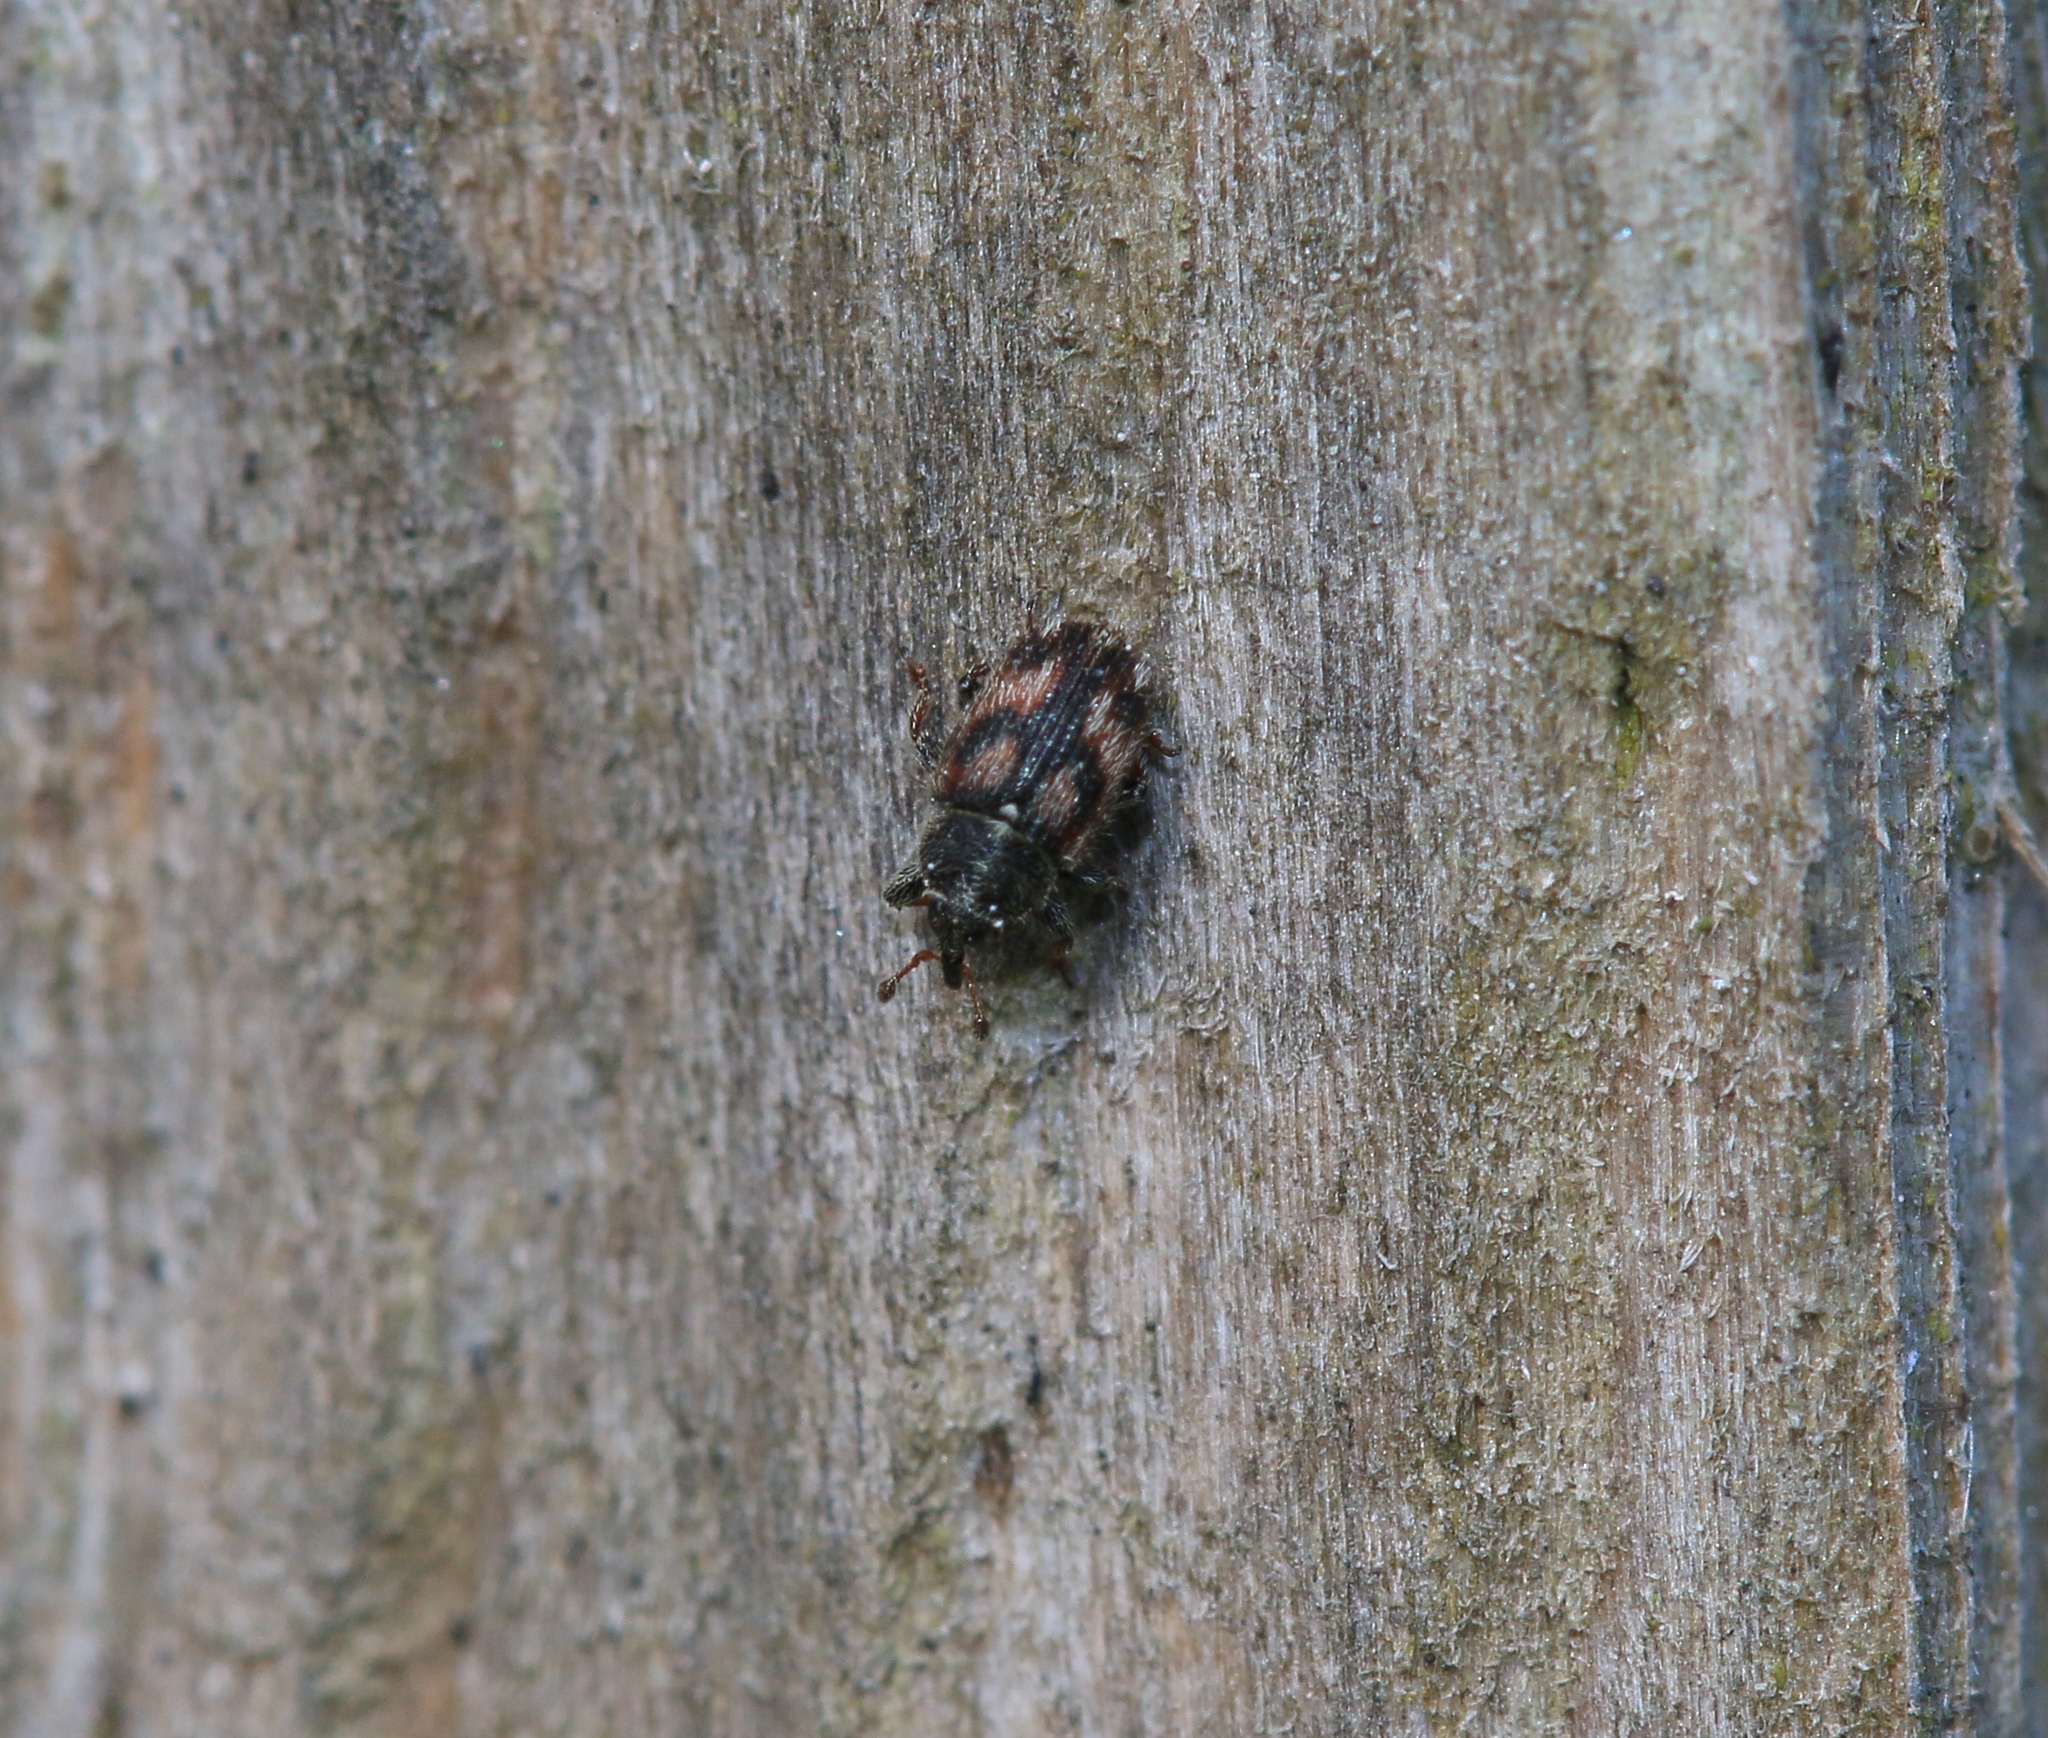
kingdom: Animalia
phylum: Arthropoda
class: Insecta
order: Coleoptera
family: Curculionidae
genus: Mecinus
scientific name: Mecinus labilis
